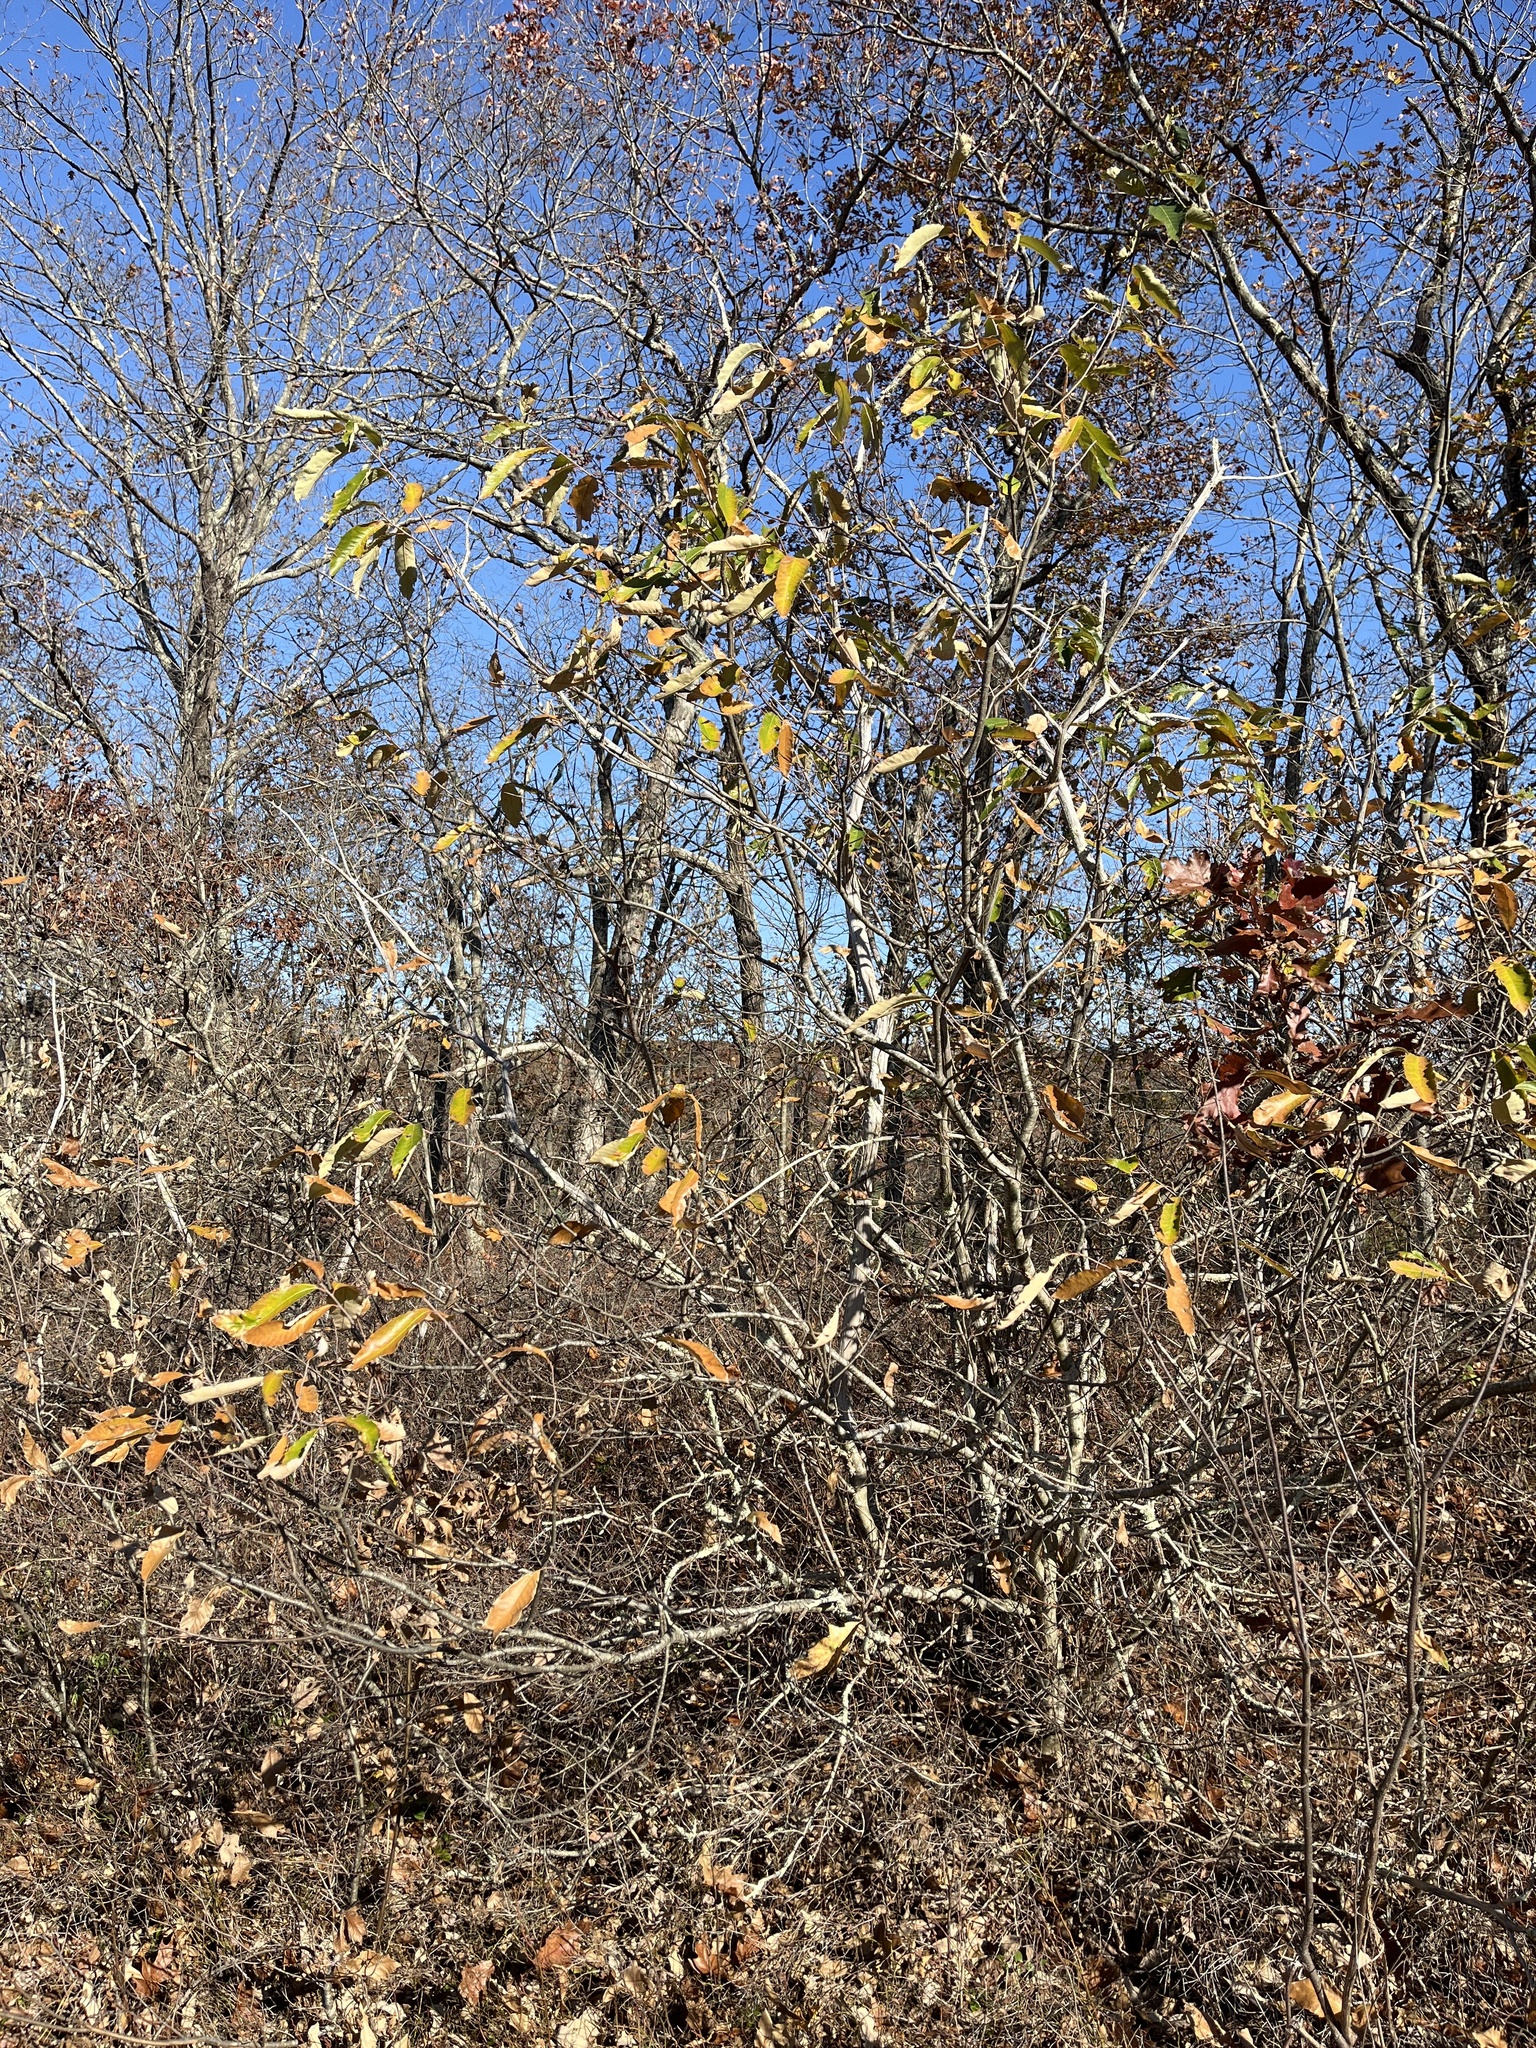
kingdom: Plantae
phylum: Tracheophyta
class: Magnoliopsida
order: Fagales
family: Fagaceae
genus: Castanea
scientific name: Castanea pumila
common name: Chinkapin
